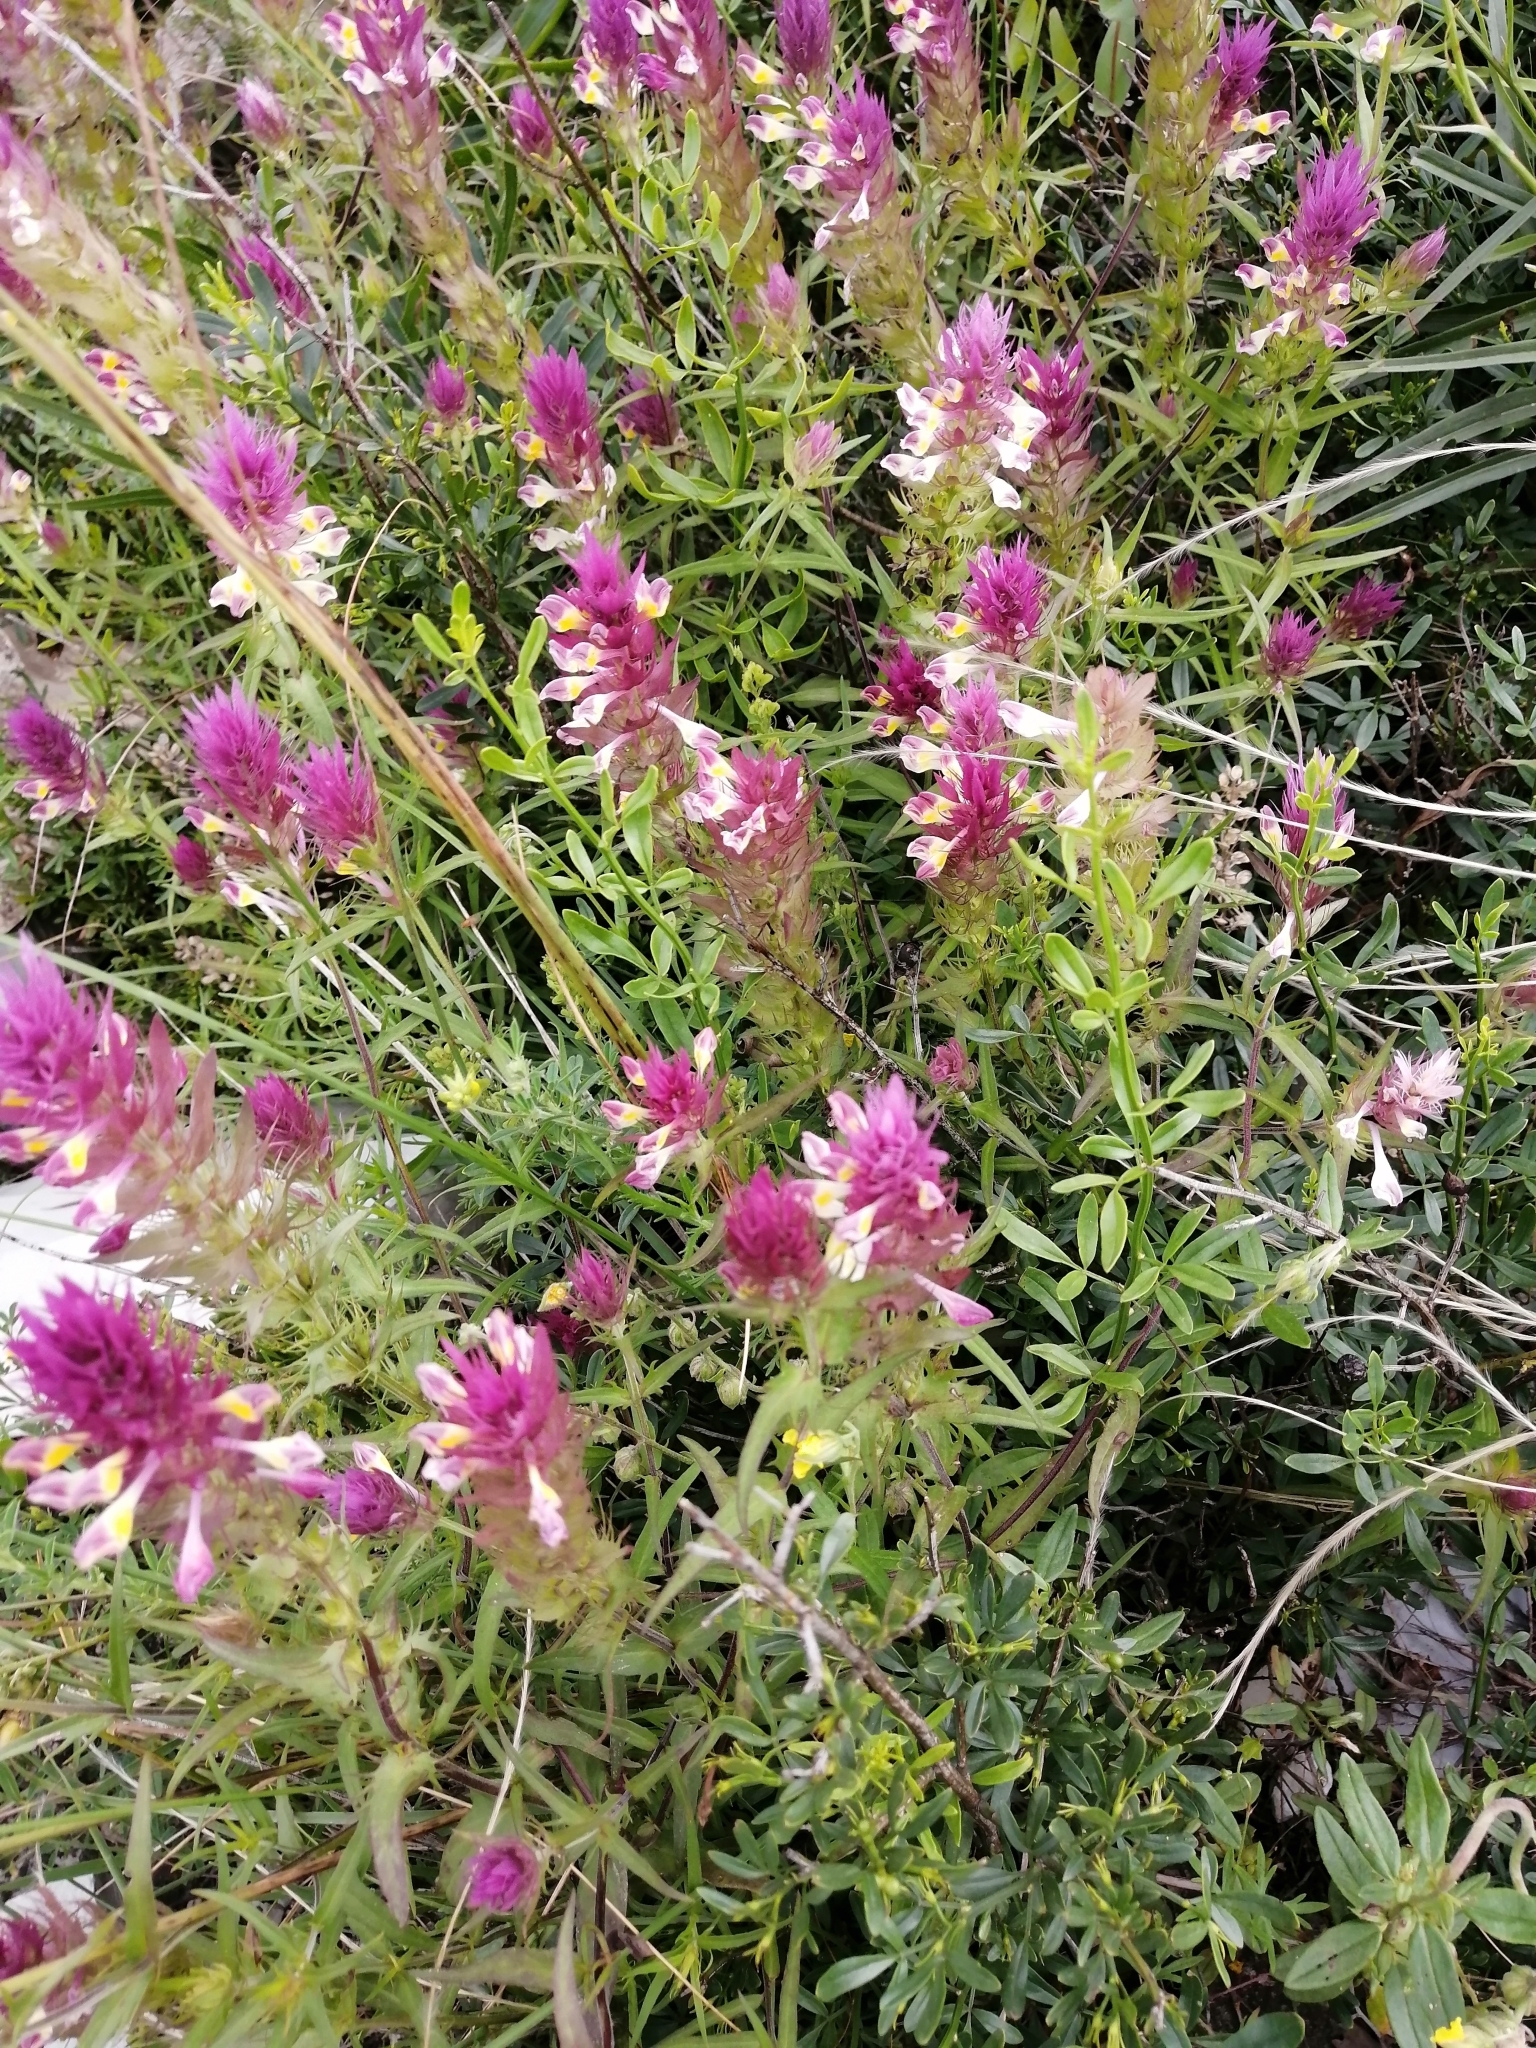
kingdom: Plantae
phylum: Tracheophyta
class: Magnoliopsida
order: Lamiales
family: Orobanchaceae
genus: Melampyrum
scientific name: Melampyrum arvense
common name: Field cow-wheat
